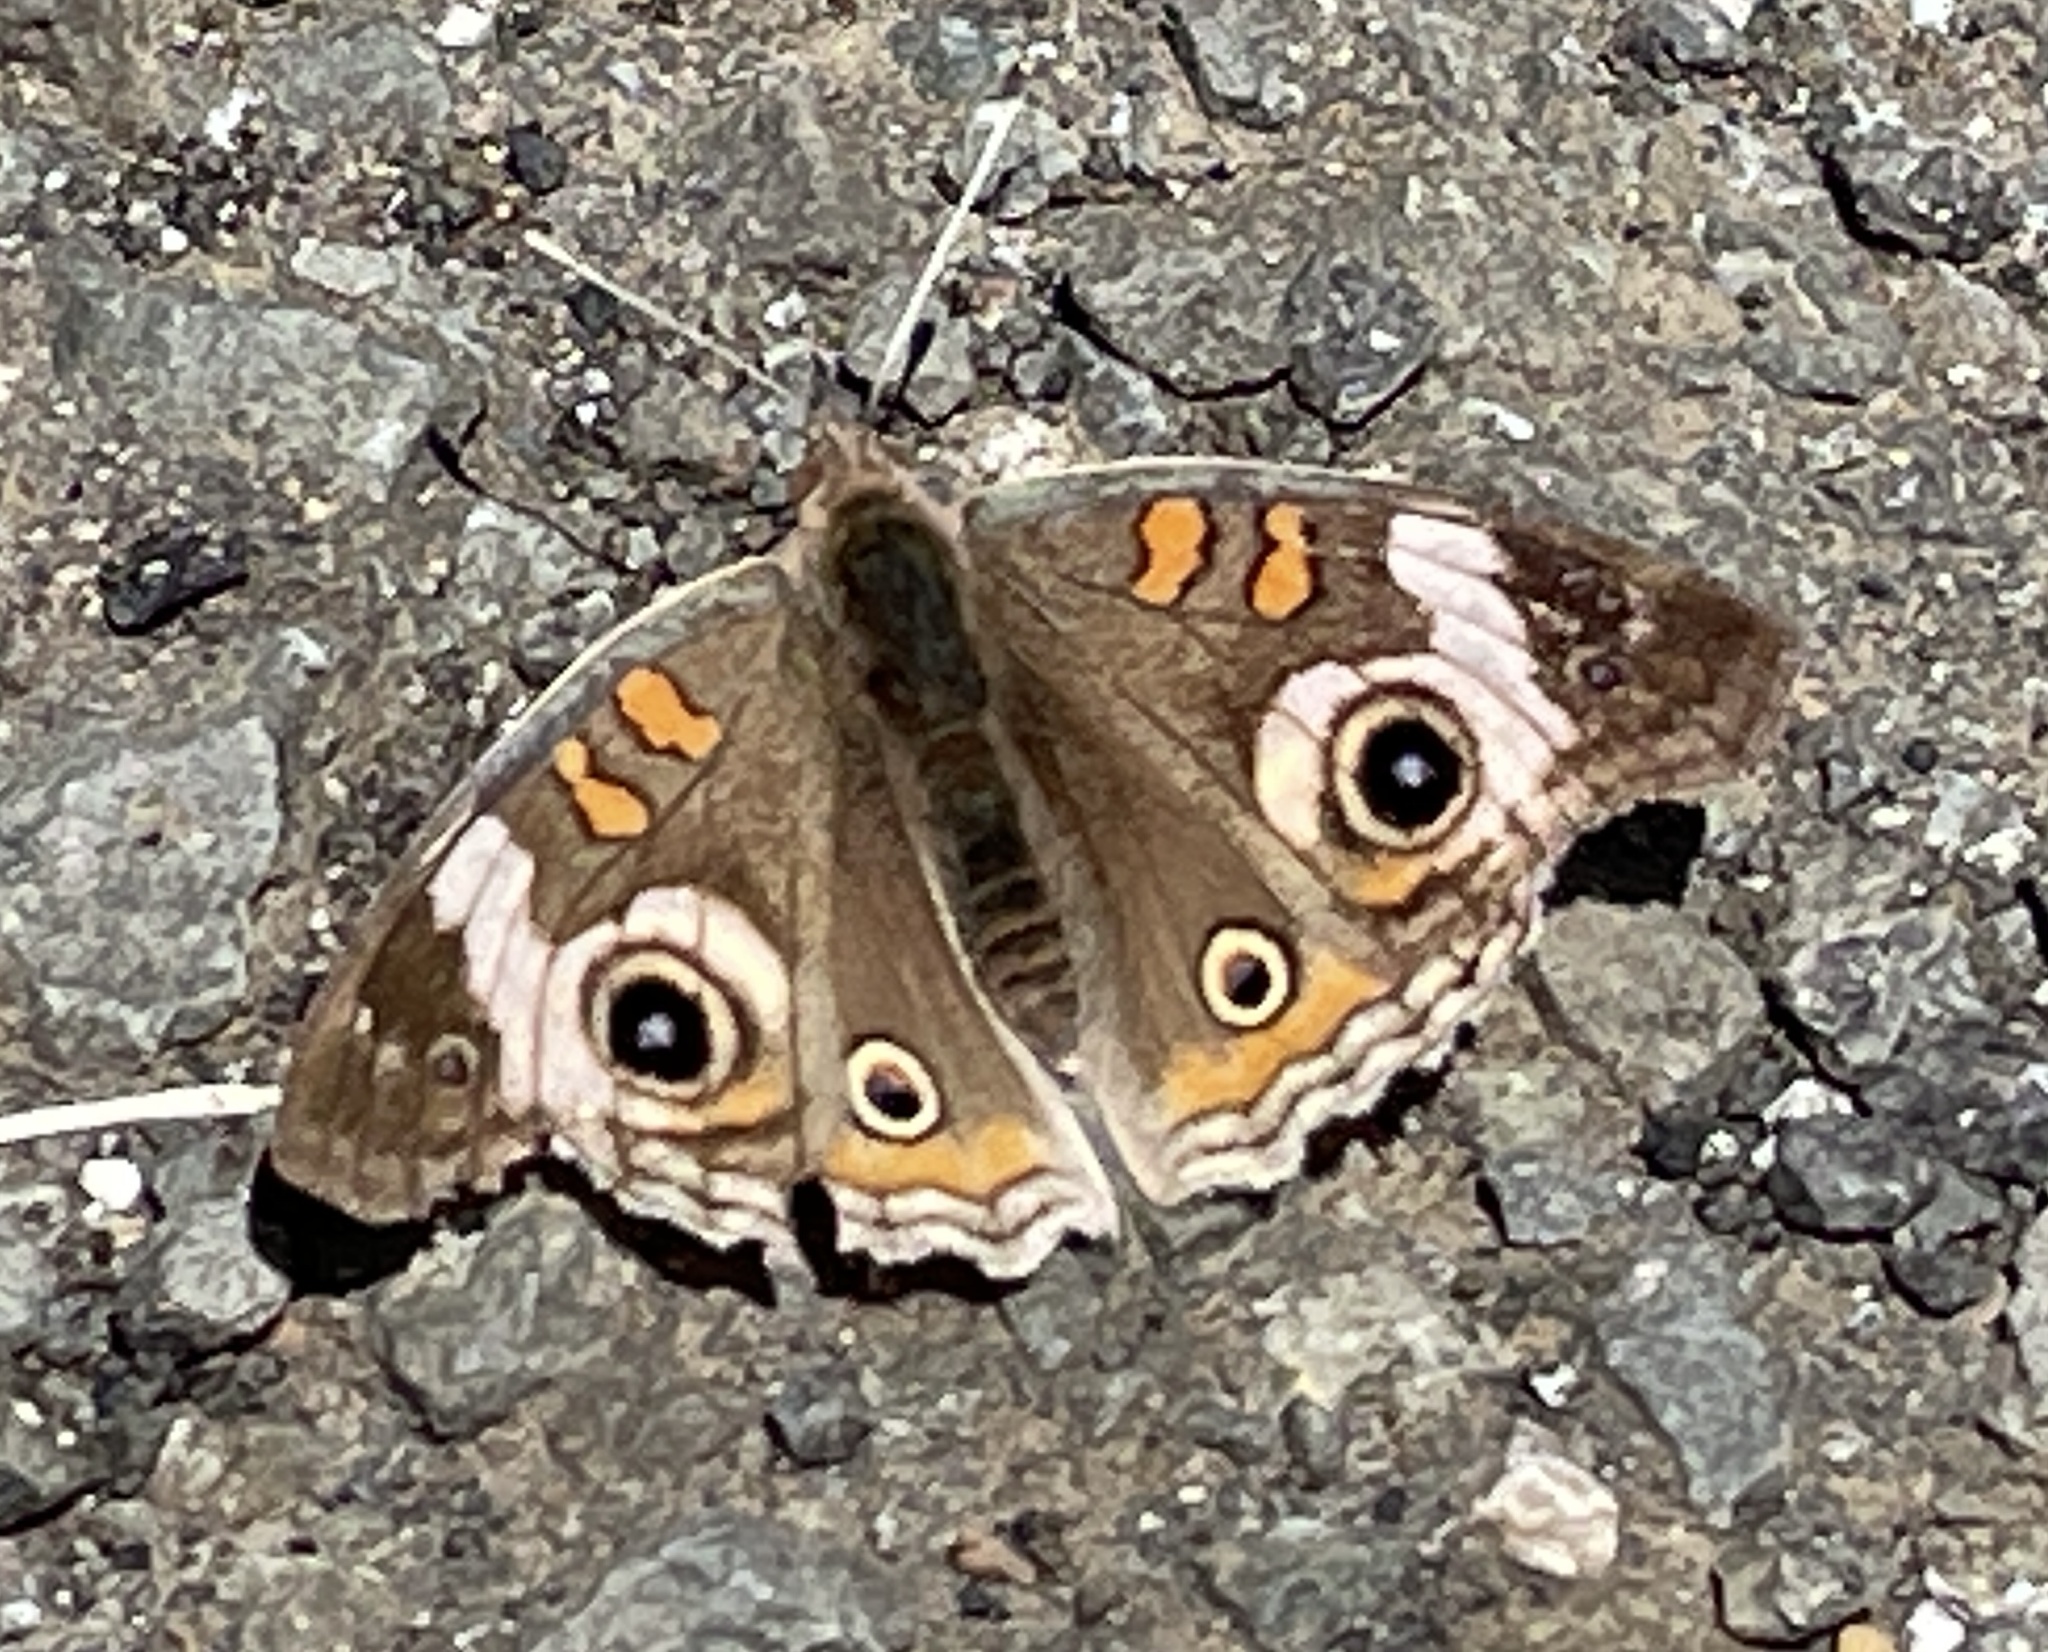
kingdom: Animalia
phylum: Arthropoda
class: Insecta
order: Lepidoptera
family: Nymphalidae
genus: Junonia
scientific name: Junonia grisea
